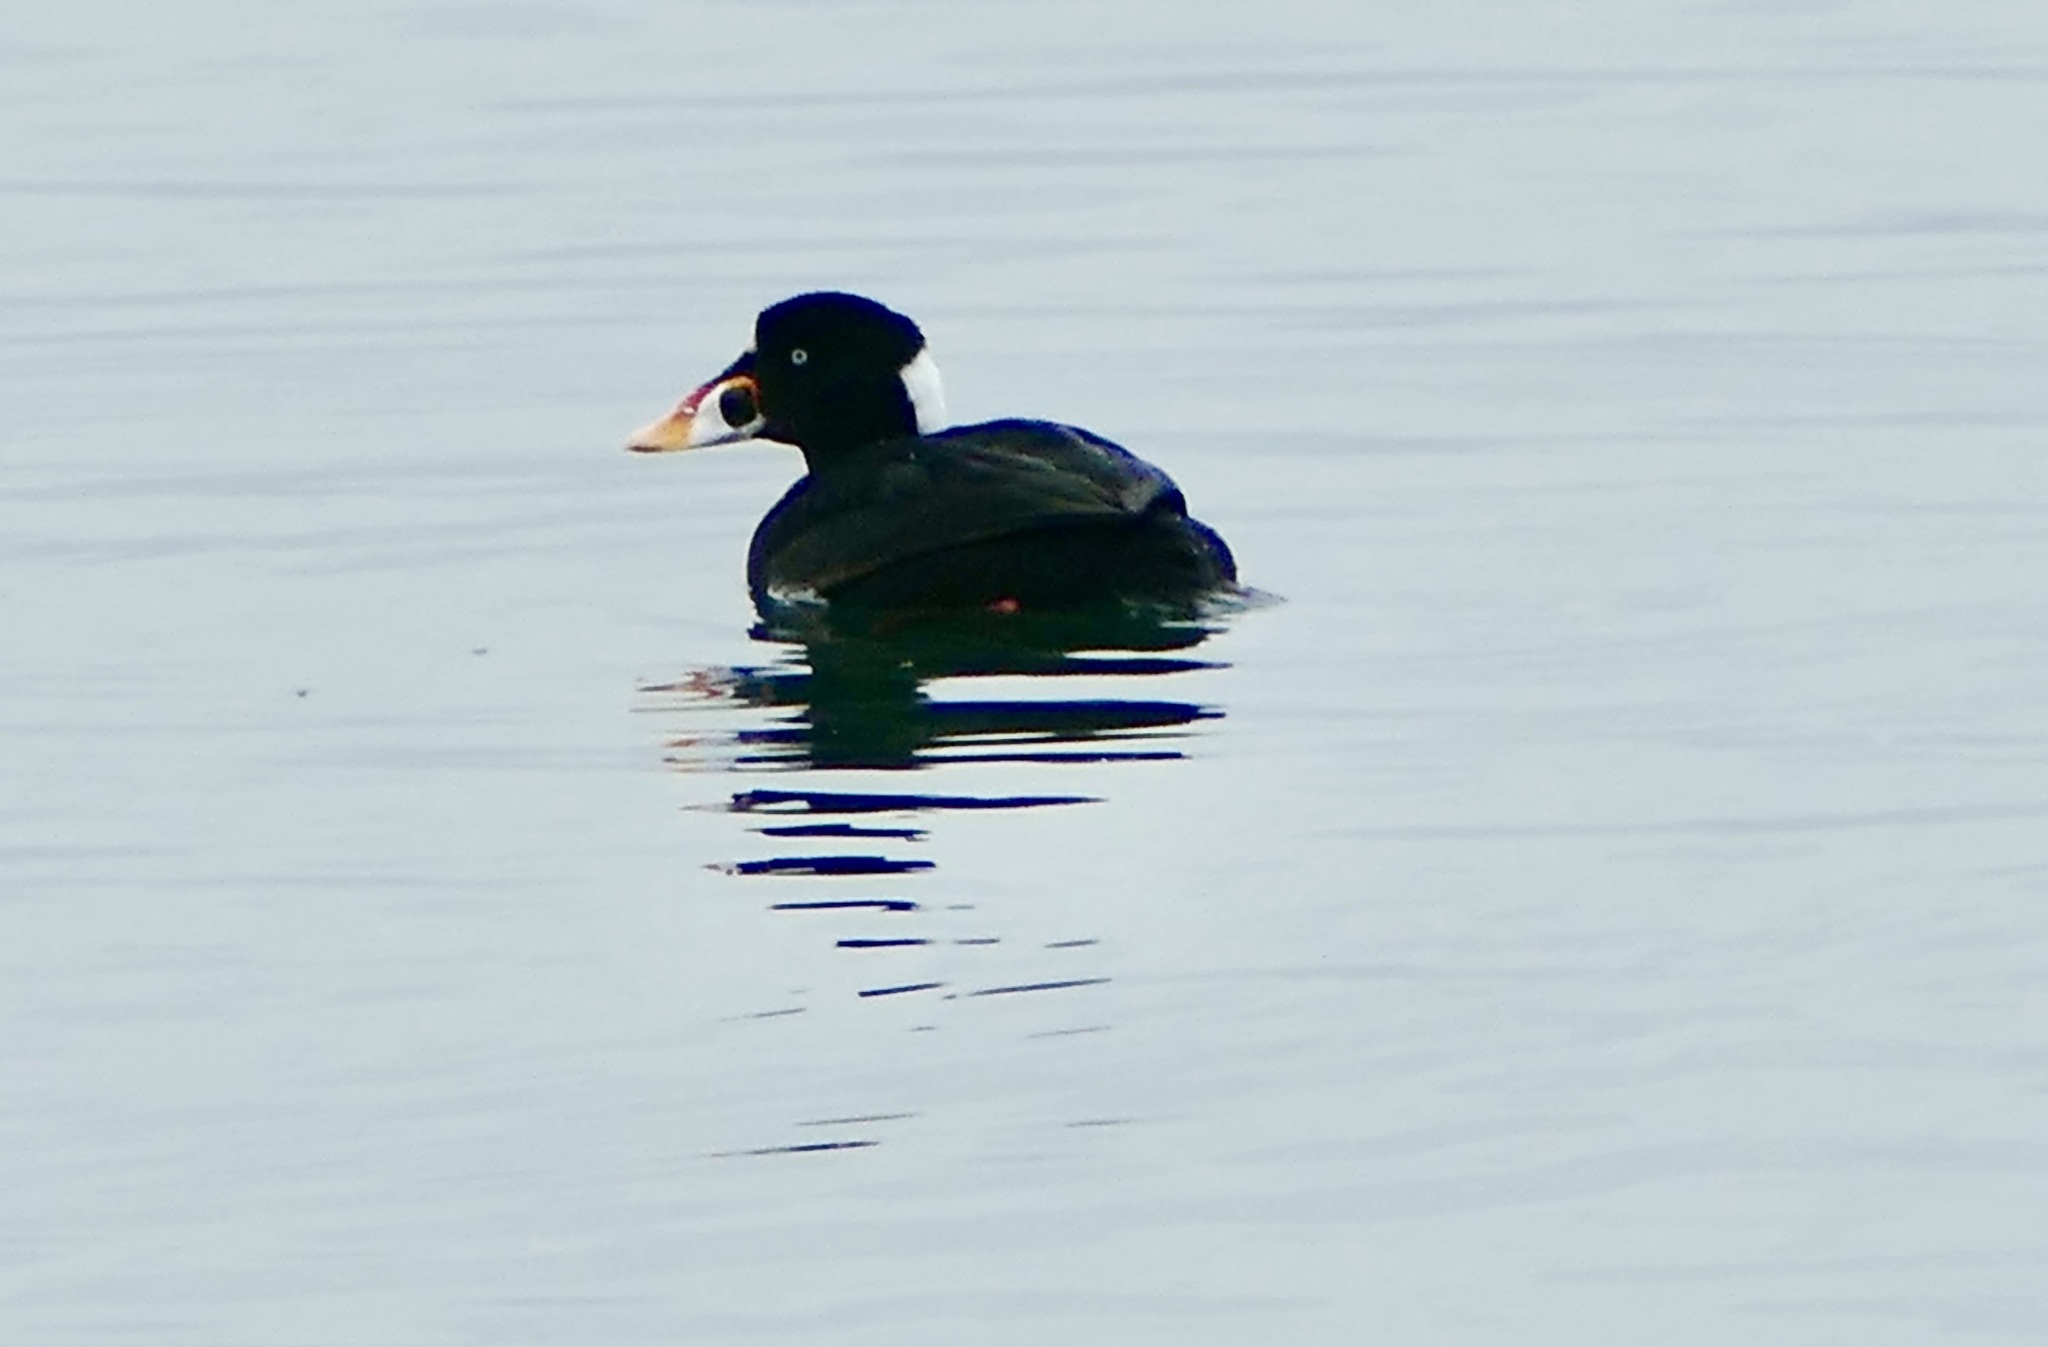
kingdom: Animalia
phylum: Chordata
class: Aves
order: Anseriformes
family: Anatidae
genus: Melanitta
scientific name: Melanitta perspicillata
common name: Surf scoter
